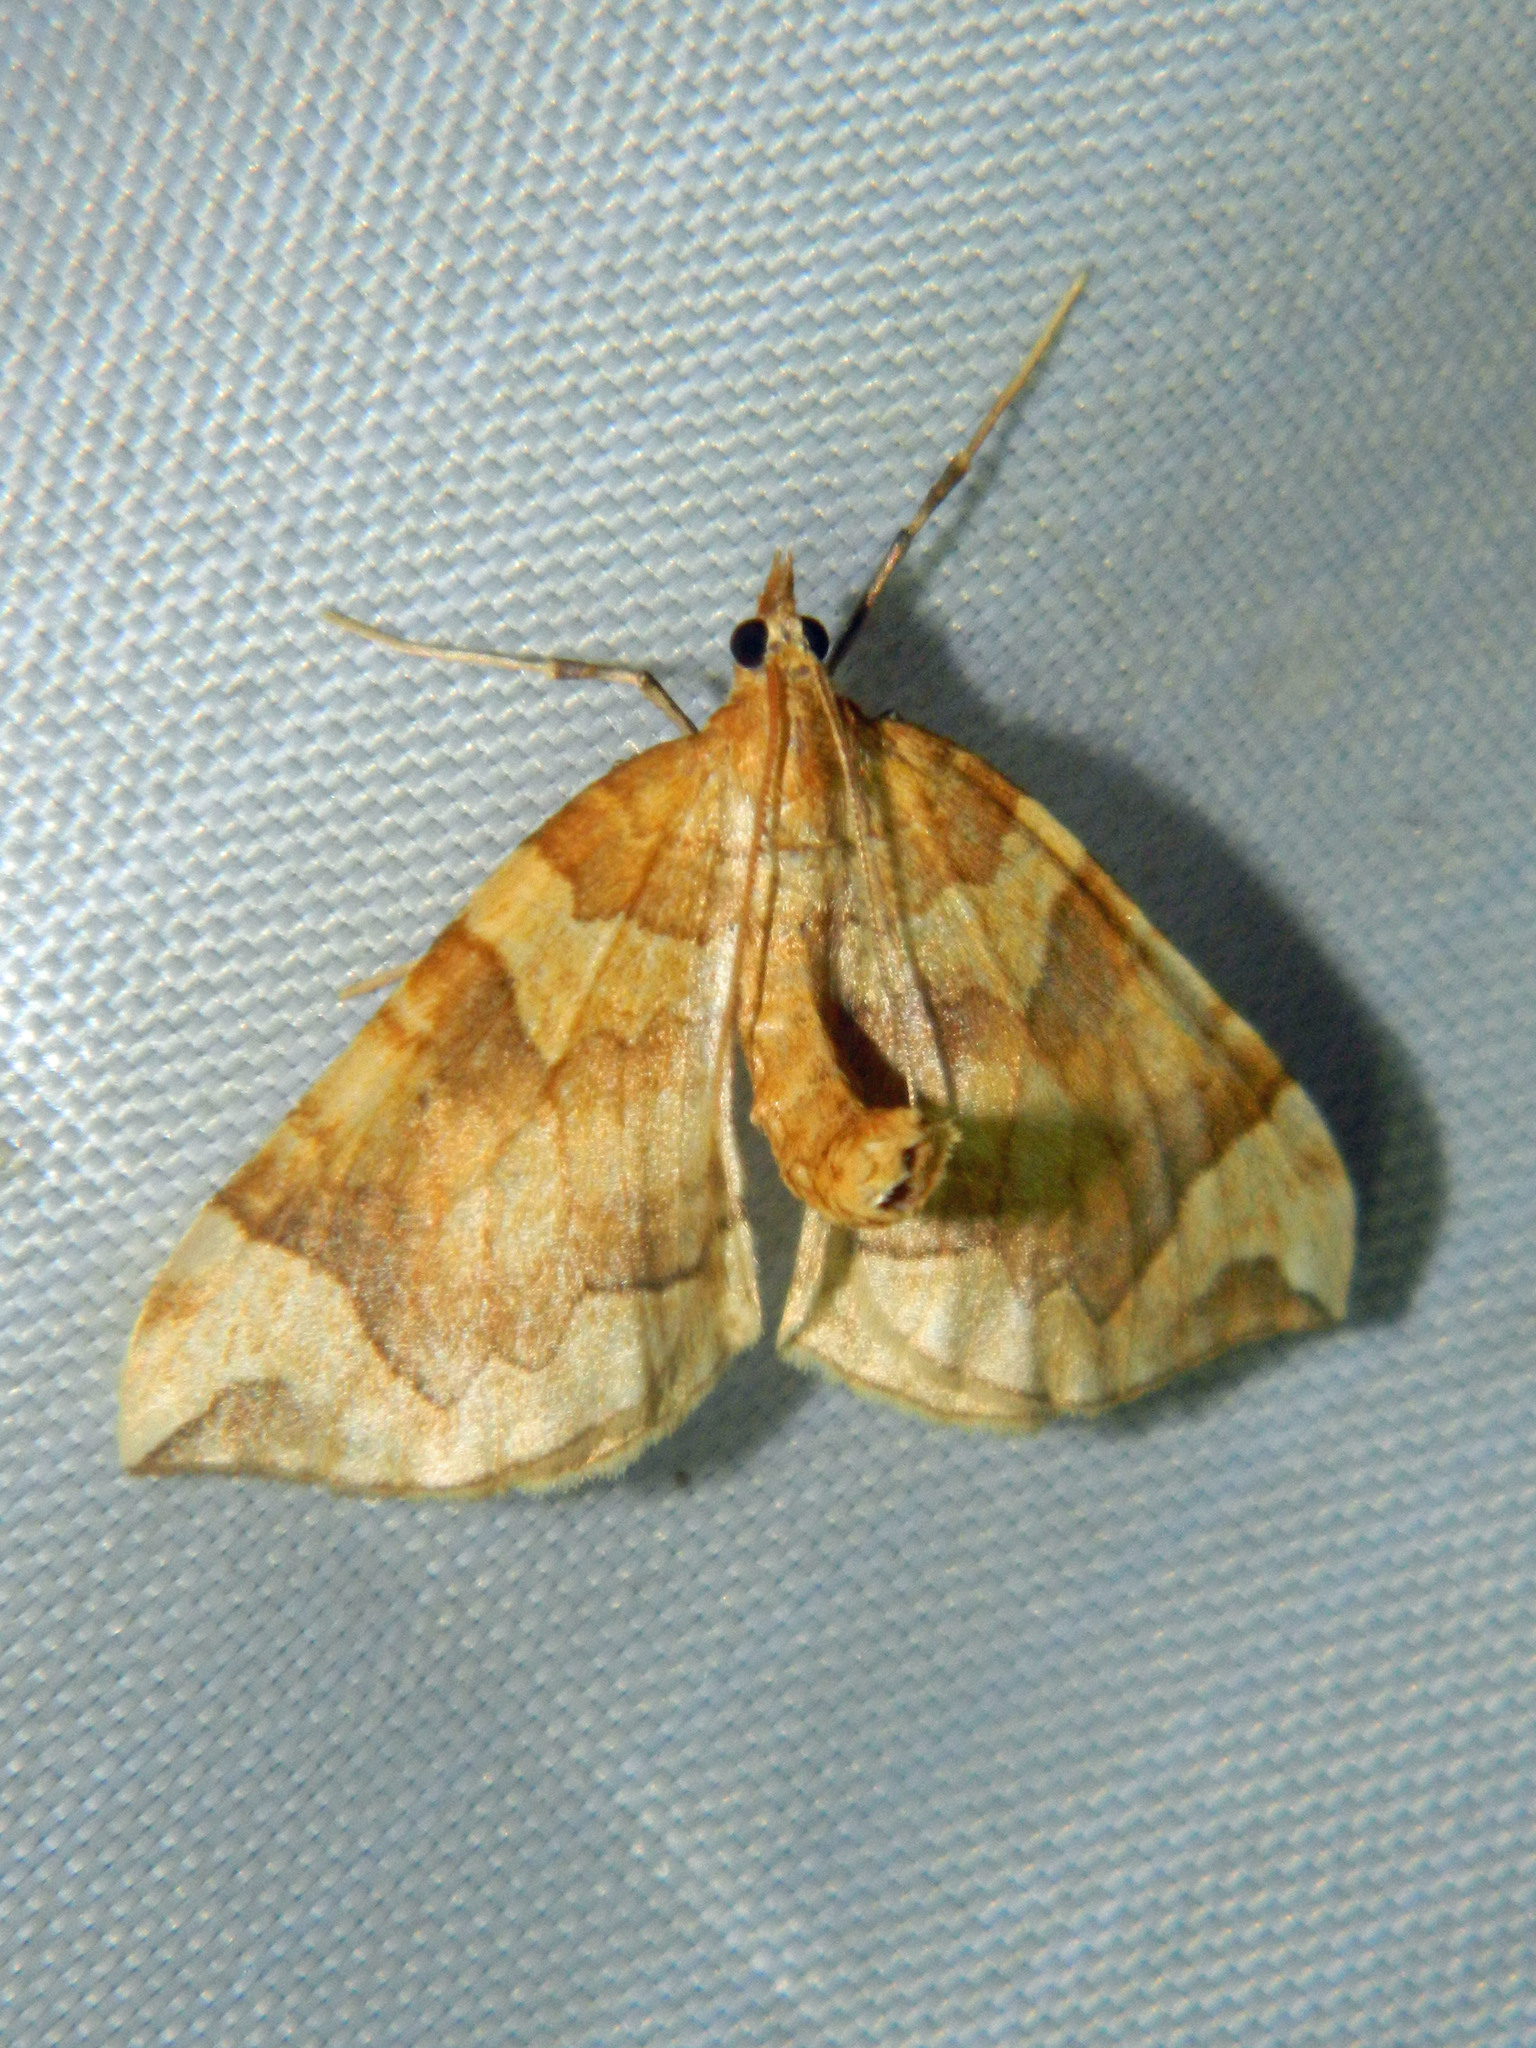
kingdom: Animalia
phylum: Arthropoda
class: Insecta
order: Lepidoptera
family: Geometridae
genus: Eulithis
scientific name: Eulithis propulsata
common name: Currant eulithis moth
